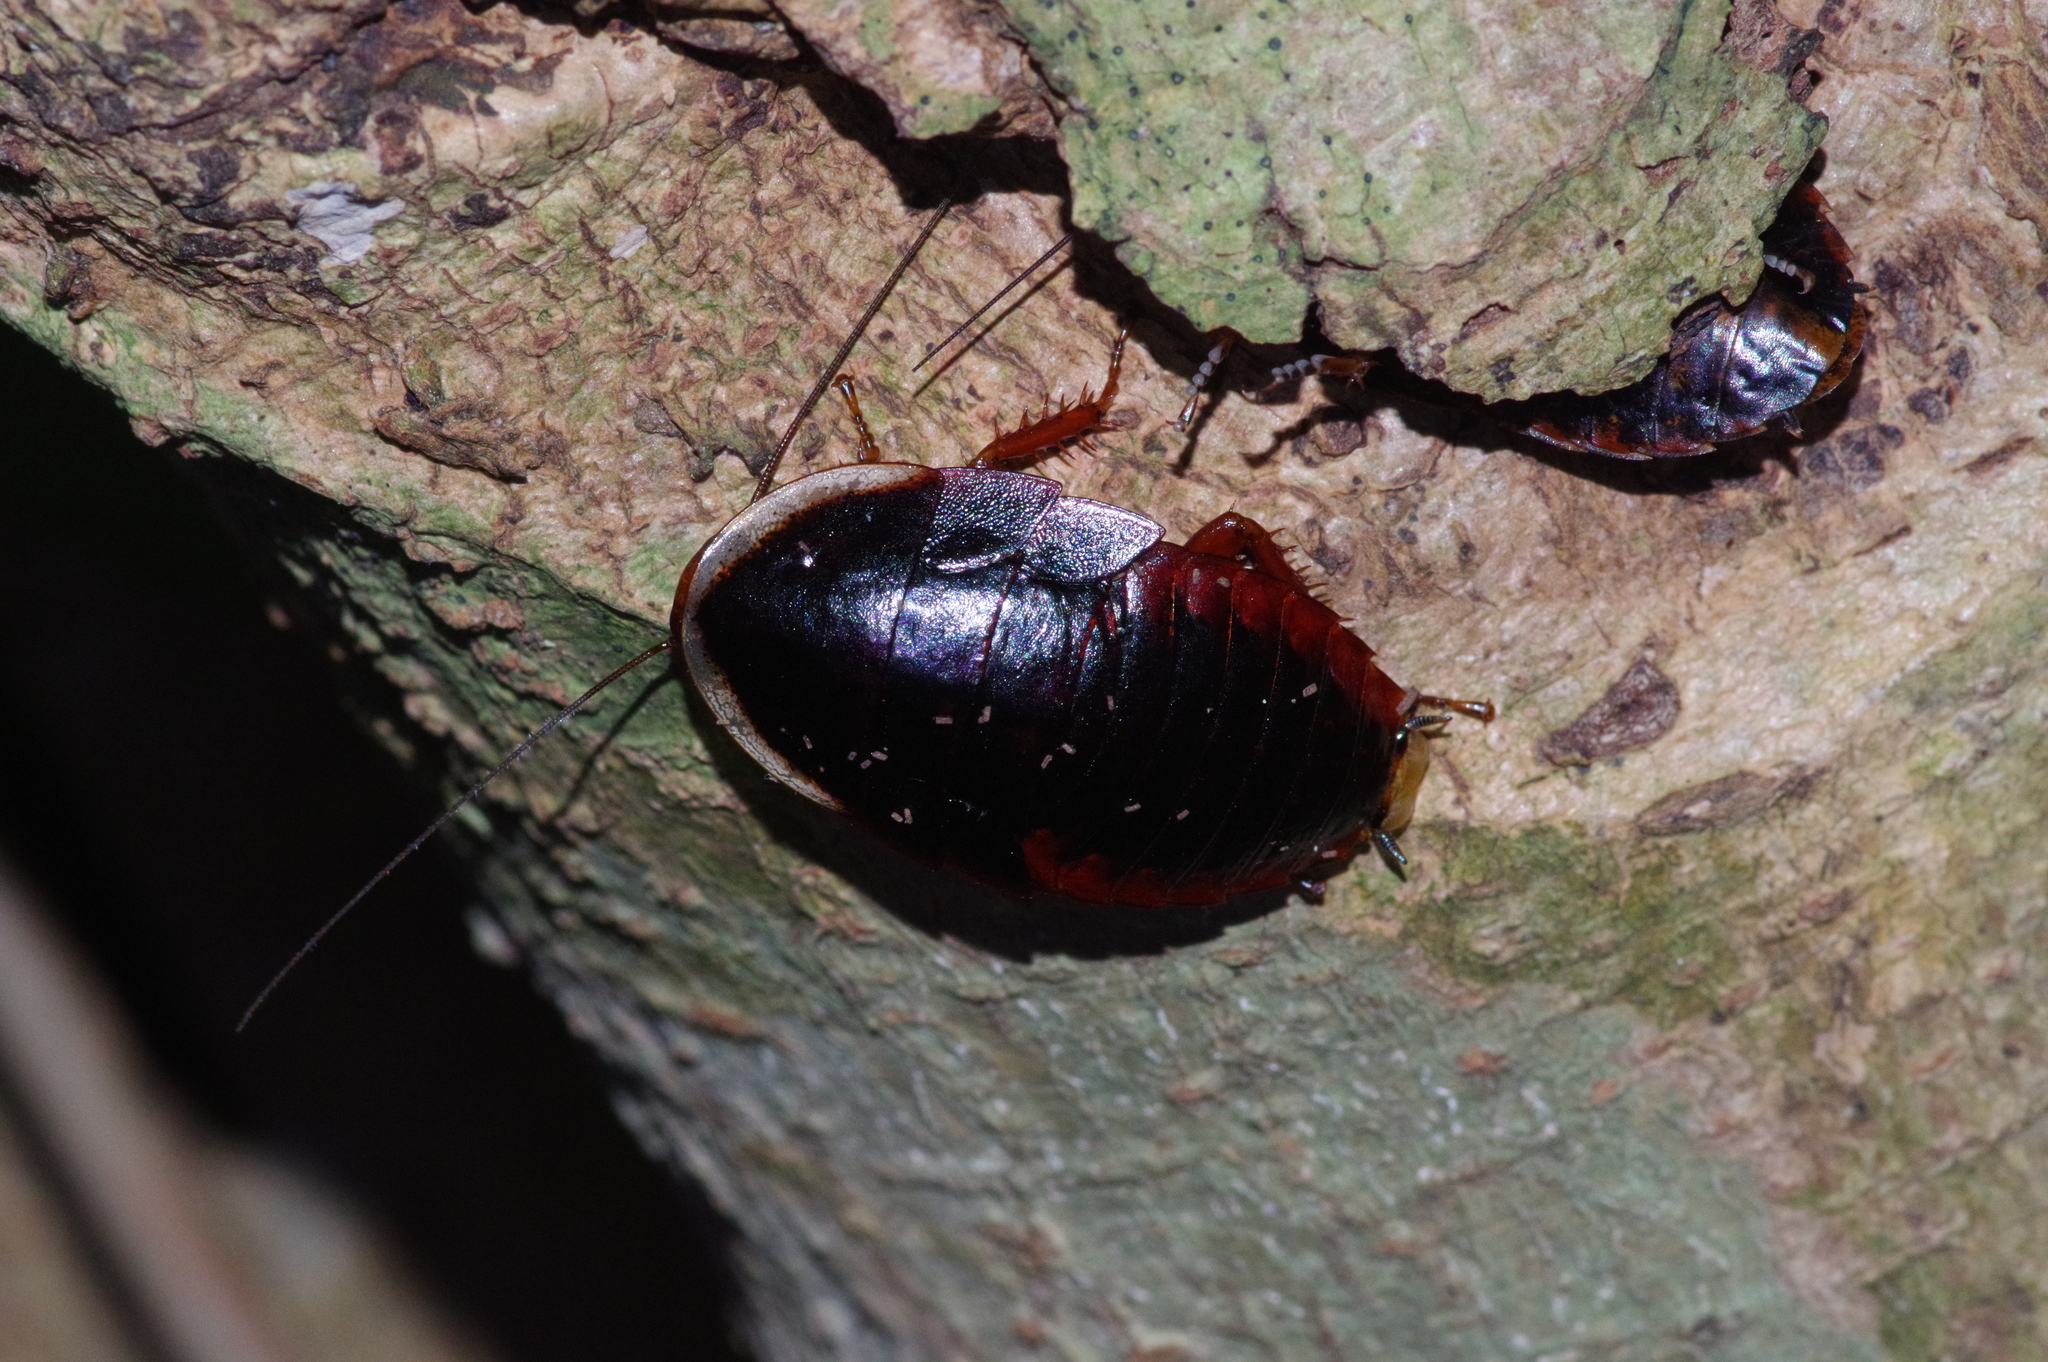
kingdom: Animalia
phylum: Arthropoda
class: Insecta
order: Blattodea
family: Blaberidae
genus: Opisthoplatia
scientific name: Opisthoplatia orientalis
